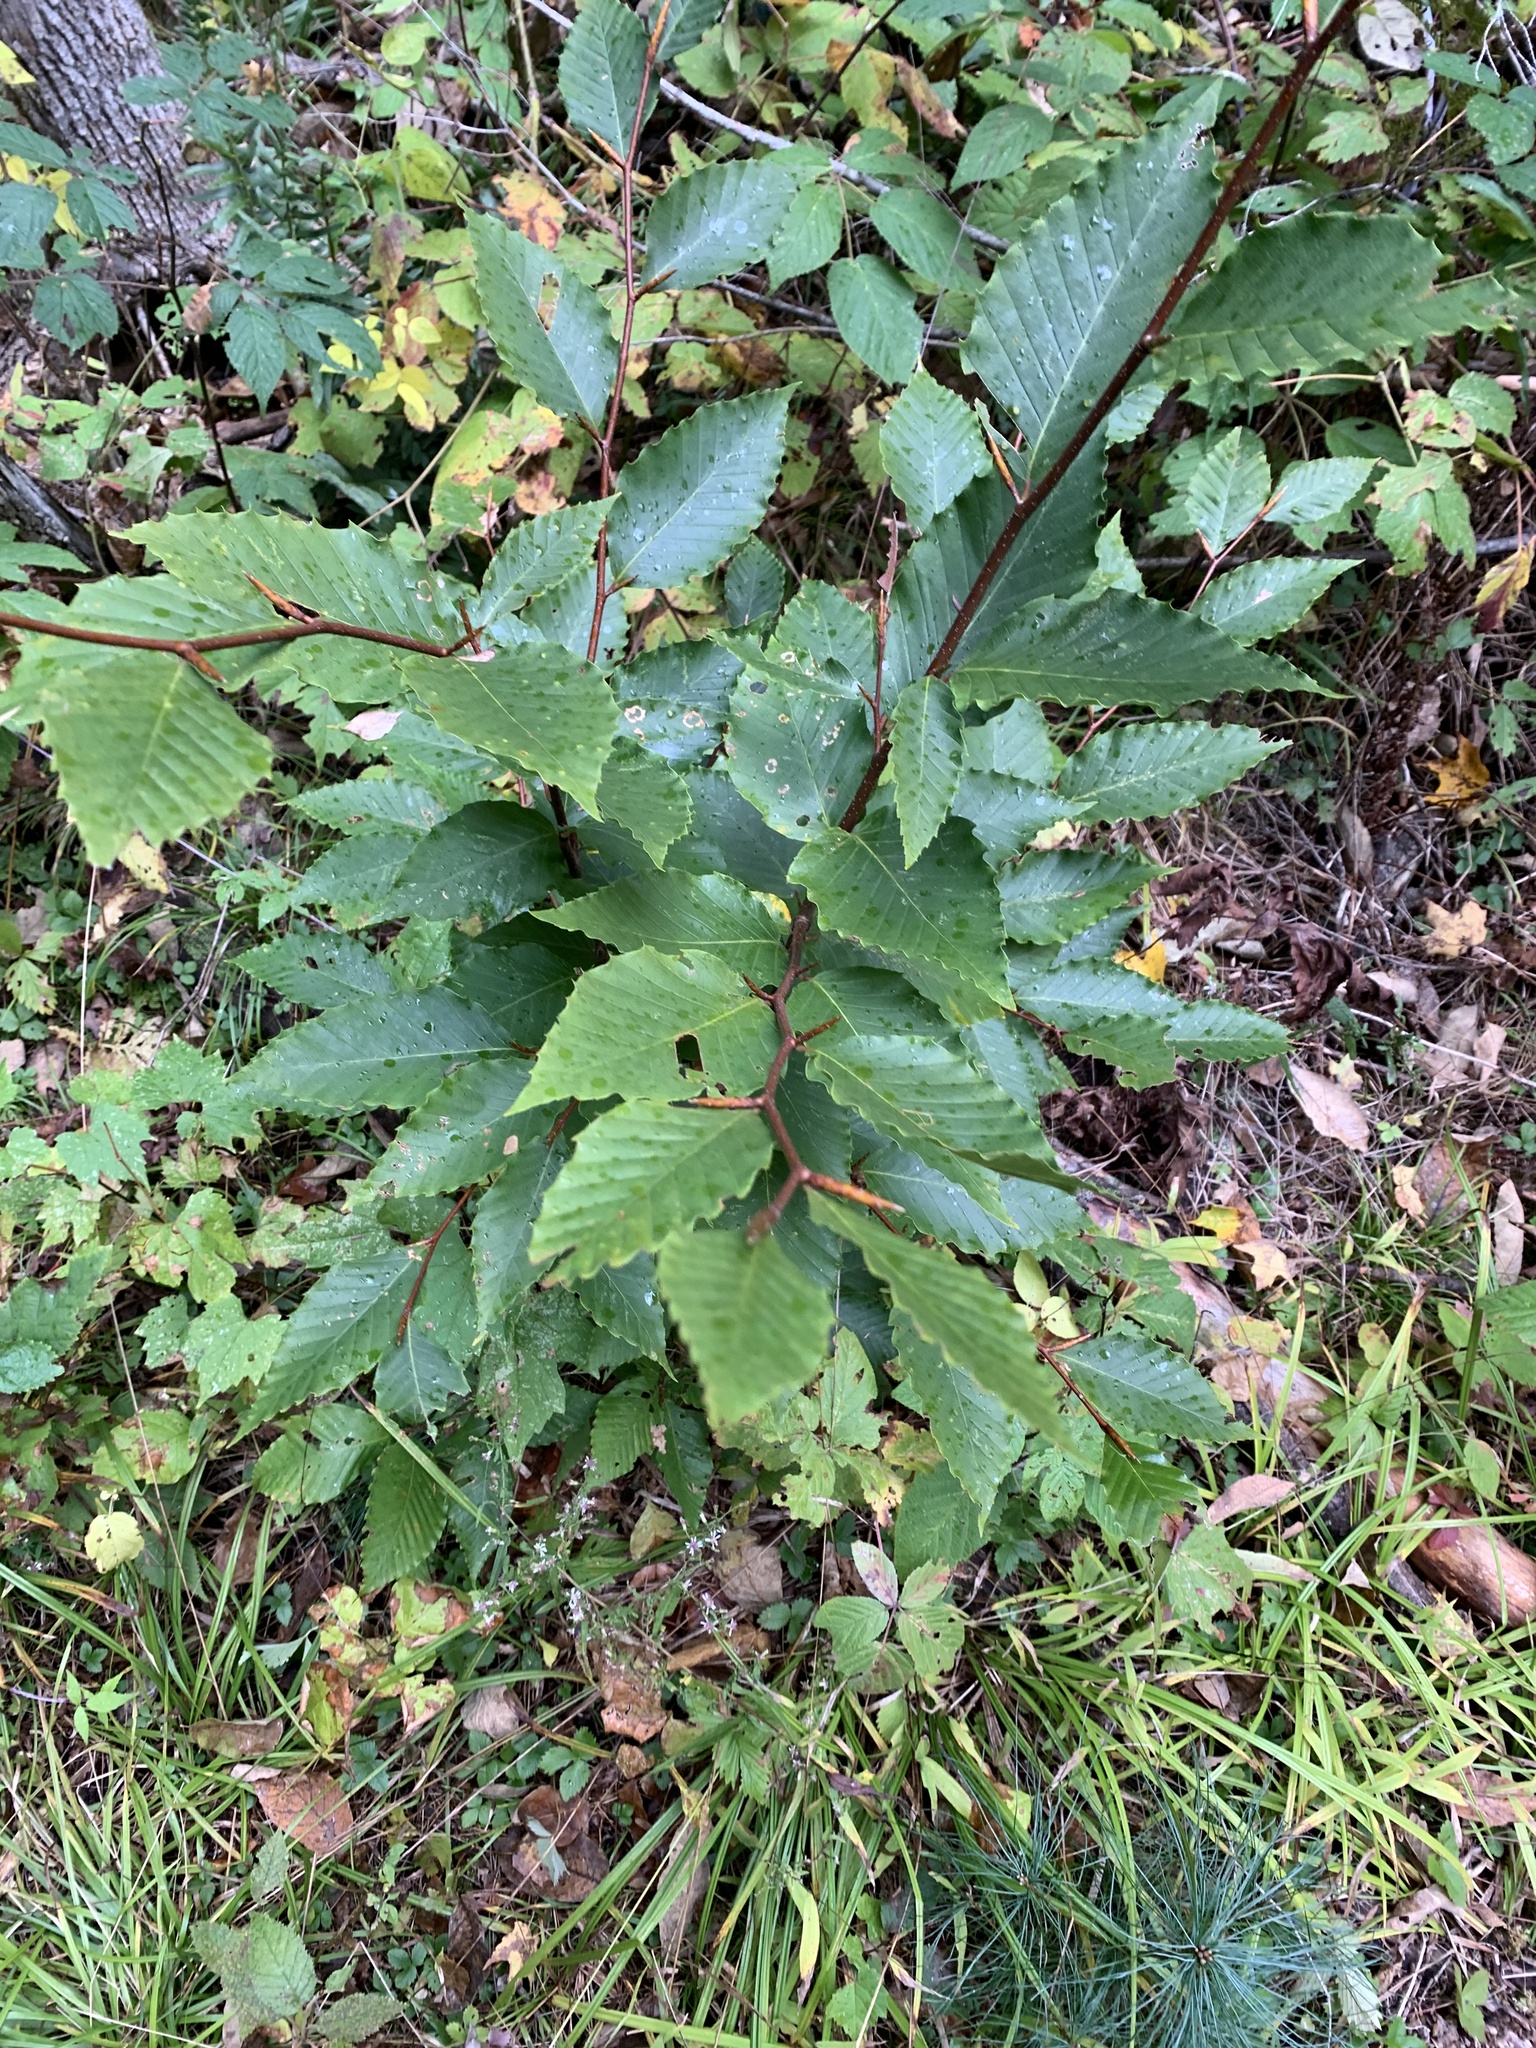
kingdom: Plantae
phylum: Tracheophyta
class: Magnoliopsida
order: Fagales
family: Fagaceae
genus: Fagus
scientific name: Fagus grandifolia
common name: American beech
